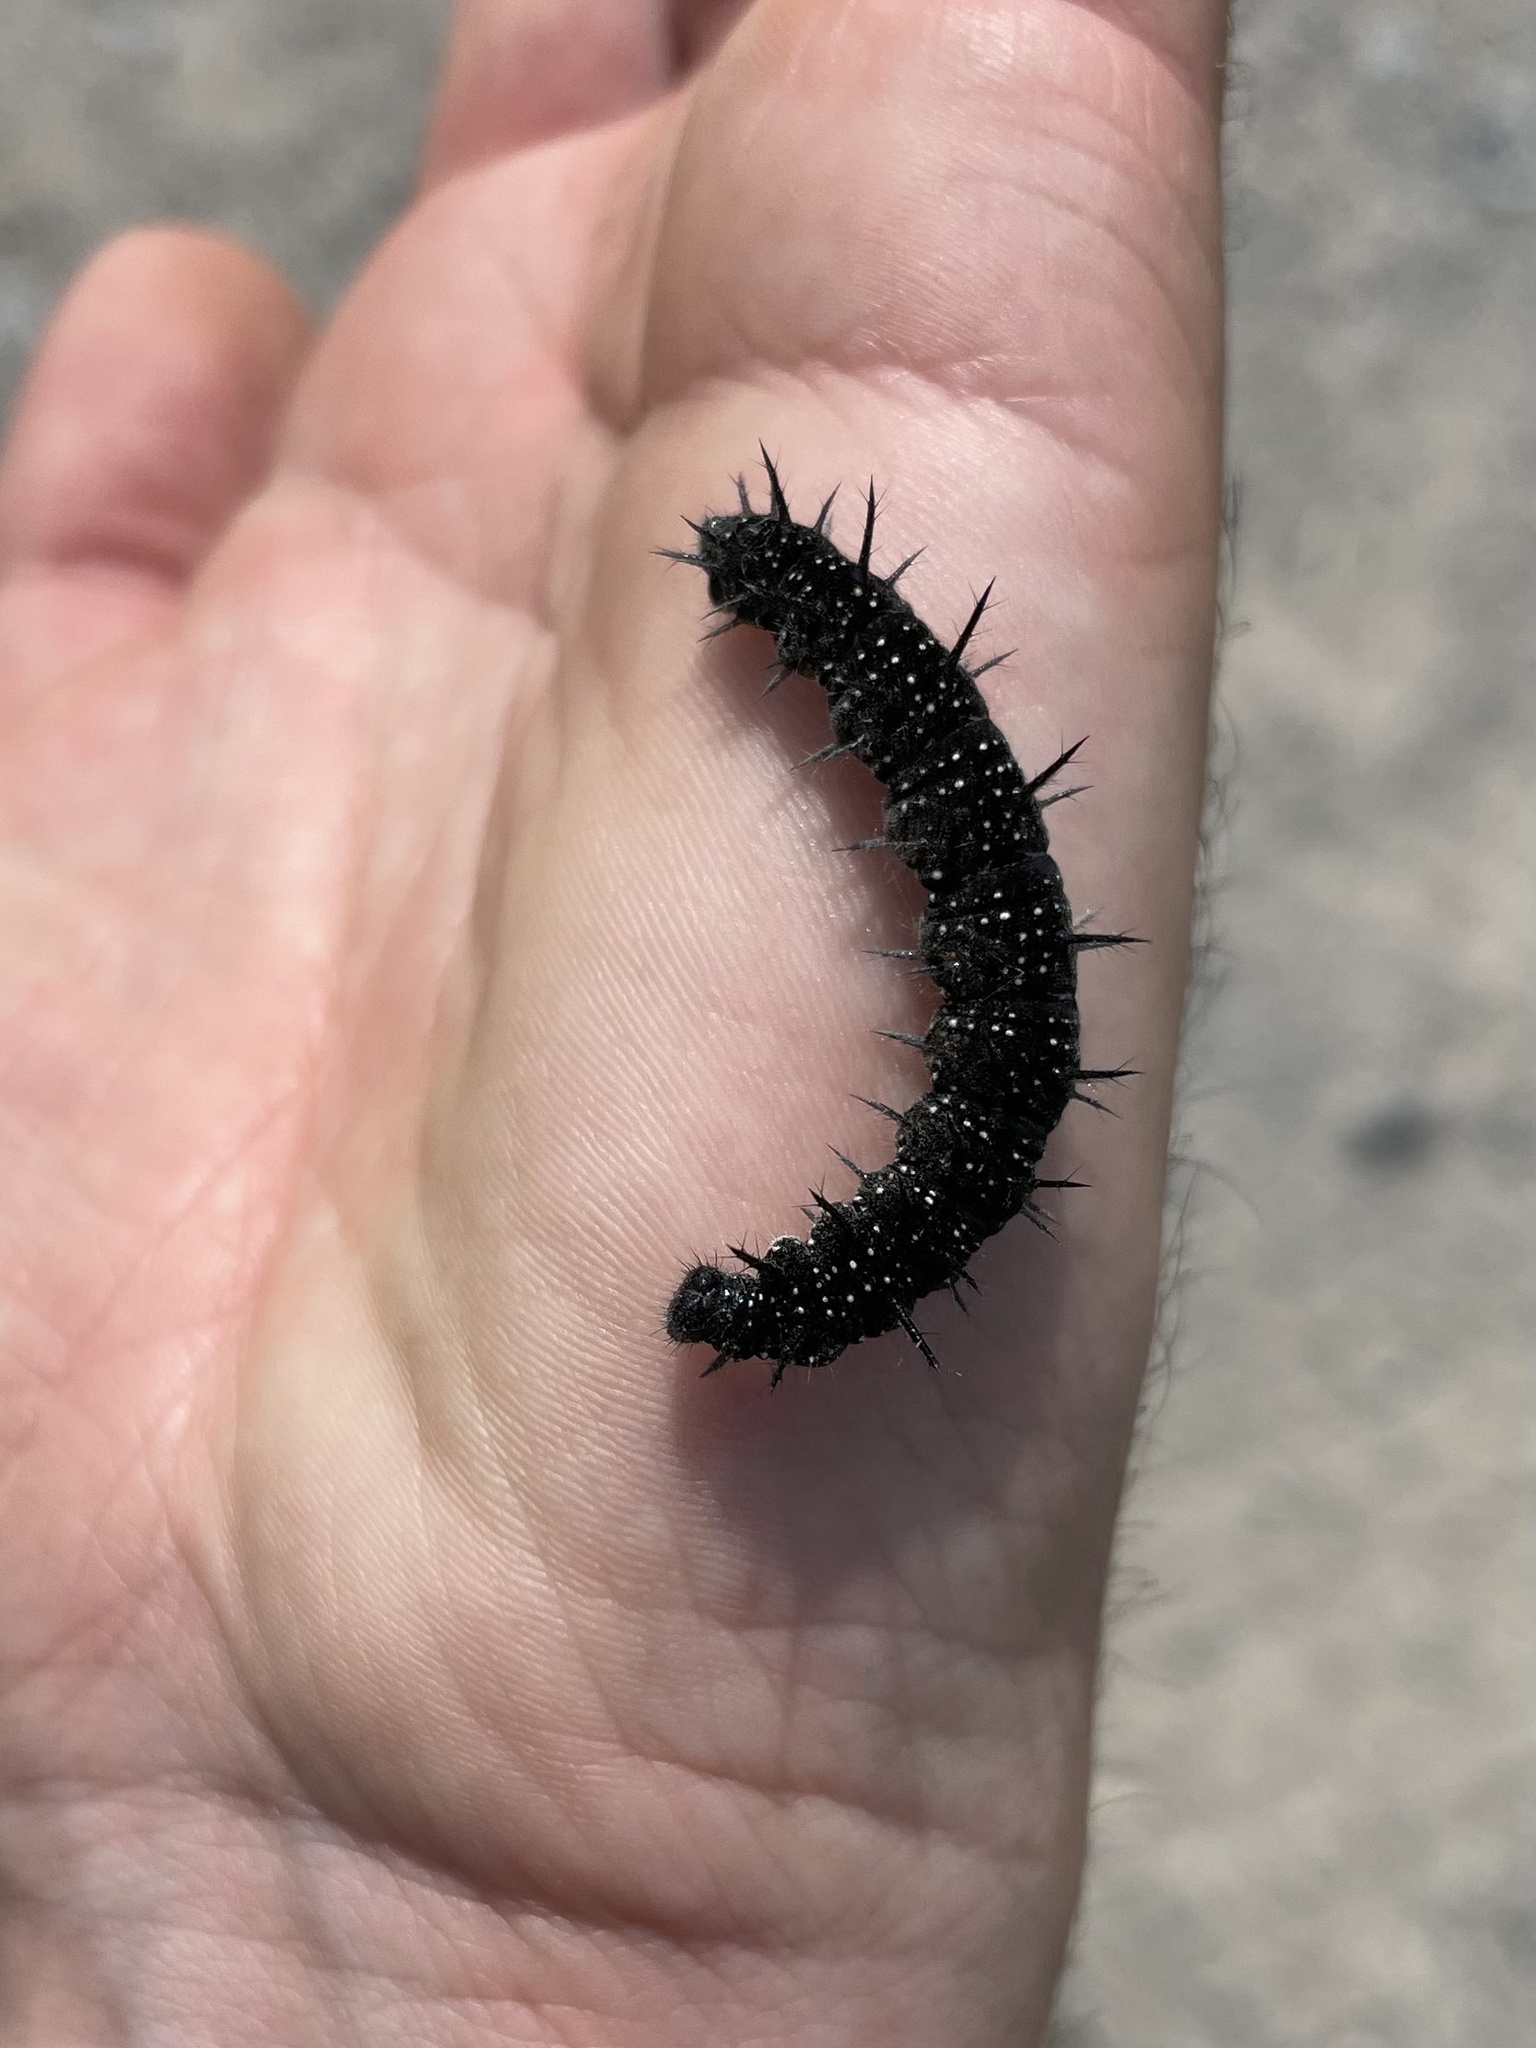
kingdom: Animalia
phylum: Arthropoda
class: Insecta
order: Lepidoptera
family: Nymphalidae
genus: Aglais
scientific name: Aglais io
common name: Peacock
